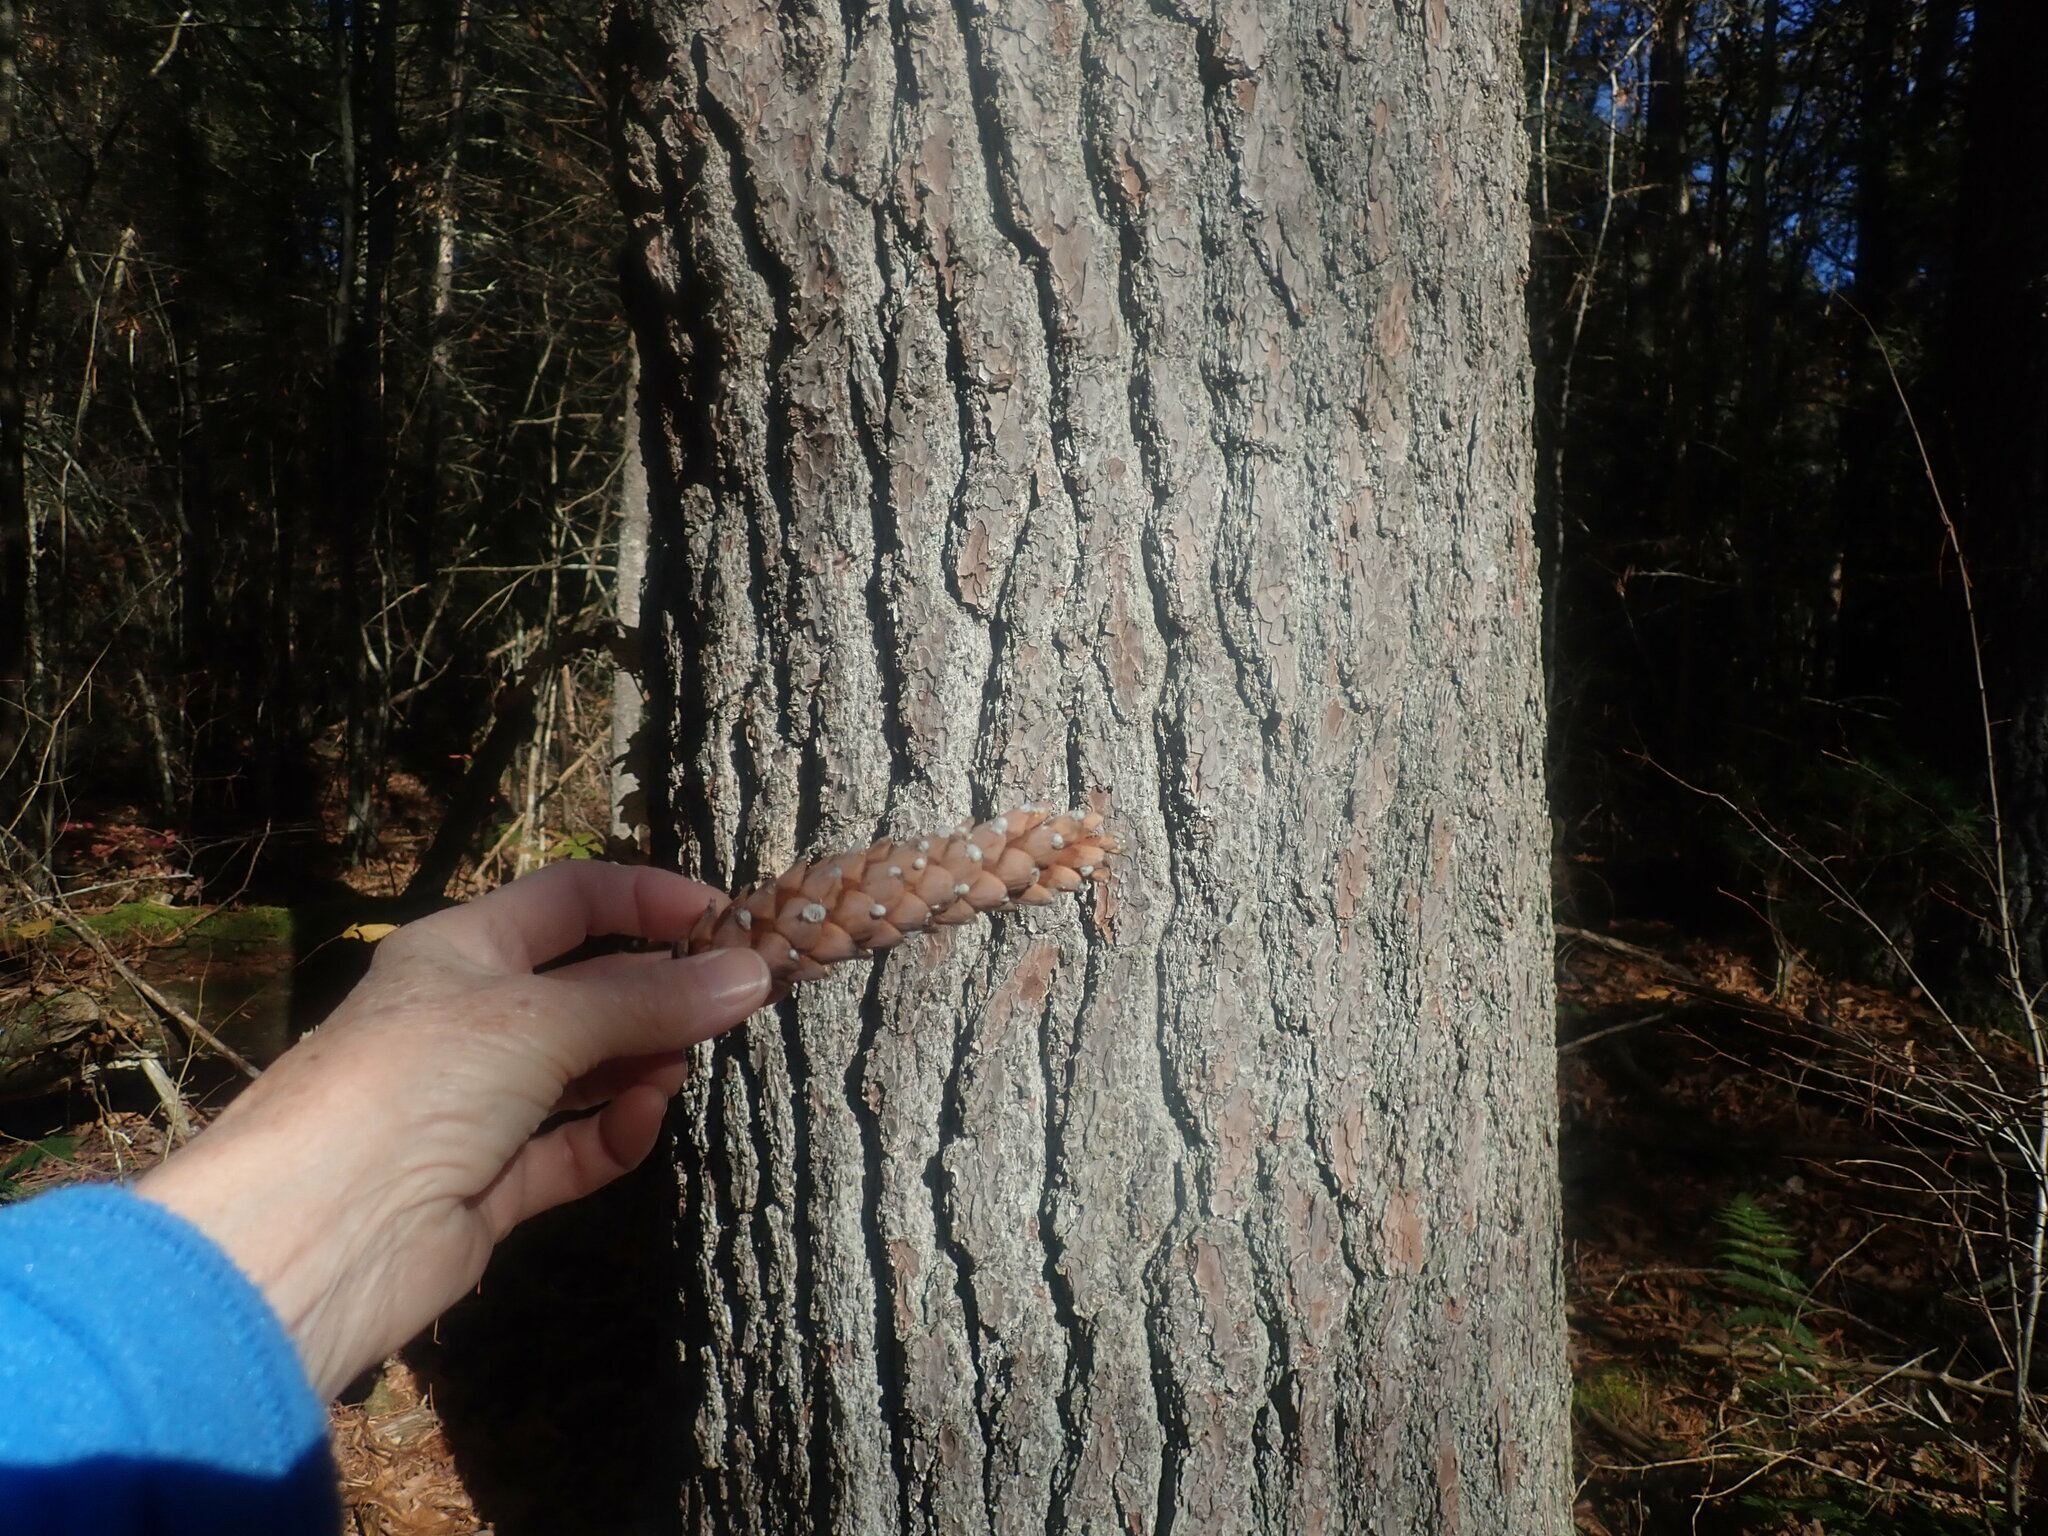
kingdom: Plantae
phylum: Tracheophyta
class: Pinopsida
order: Pinales
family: Pinaceae
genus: Pinus
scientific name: Pinus strobus
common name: Weymouth pine
